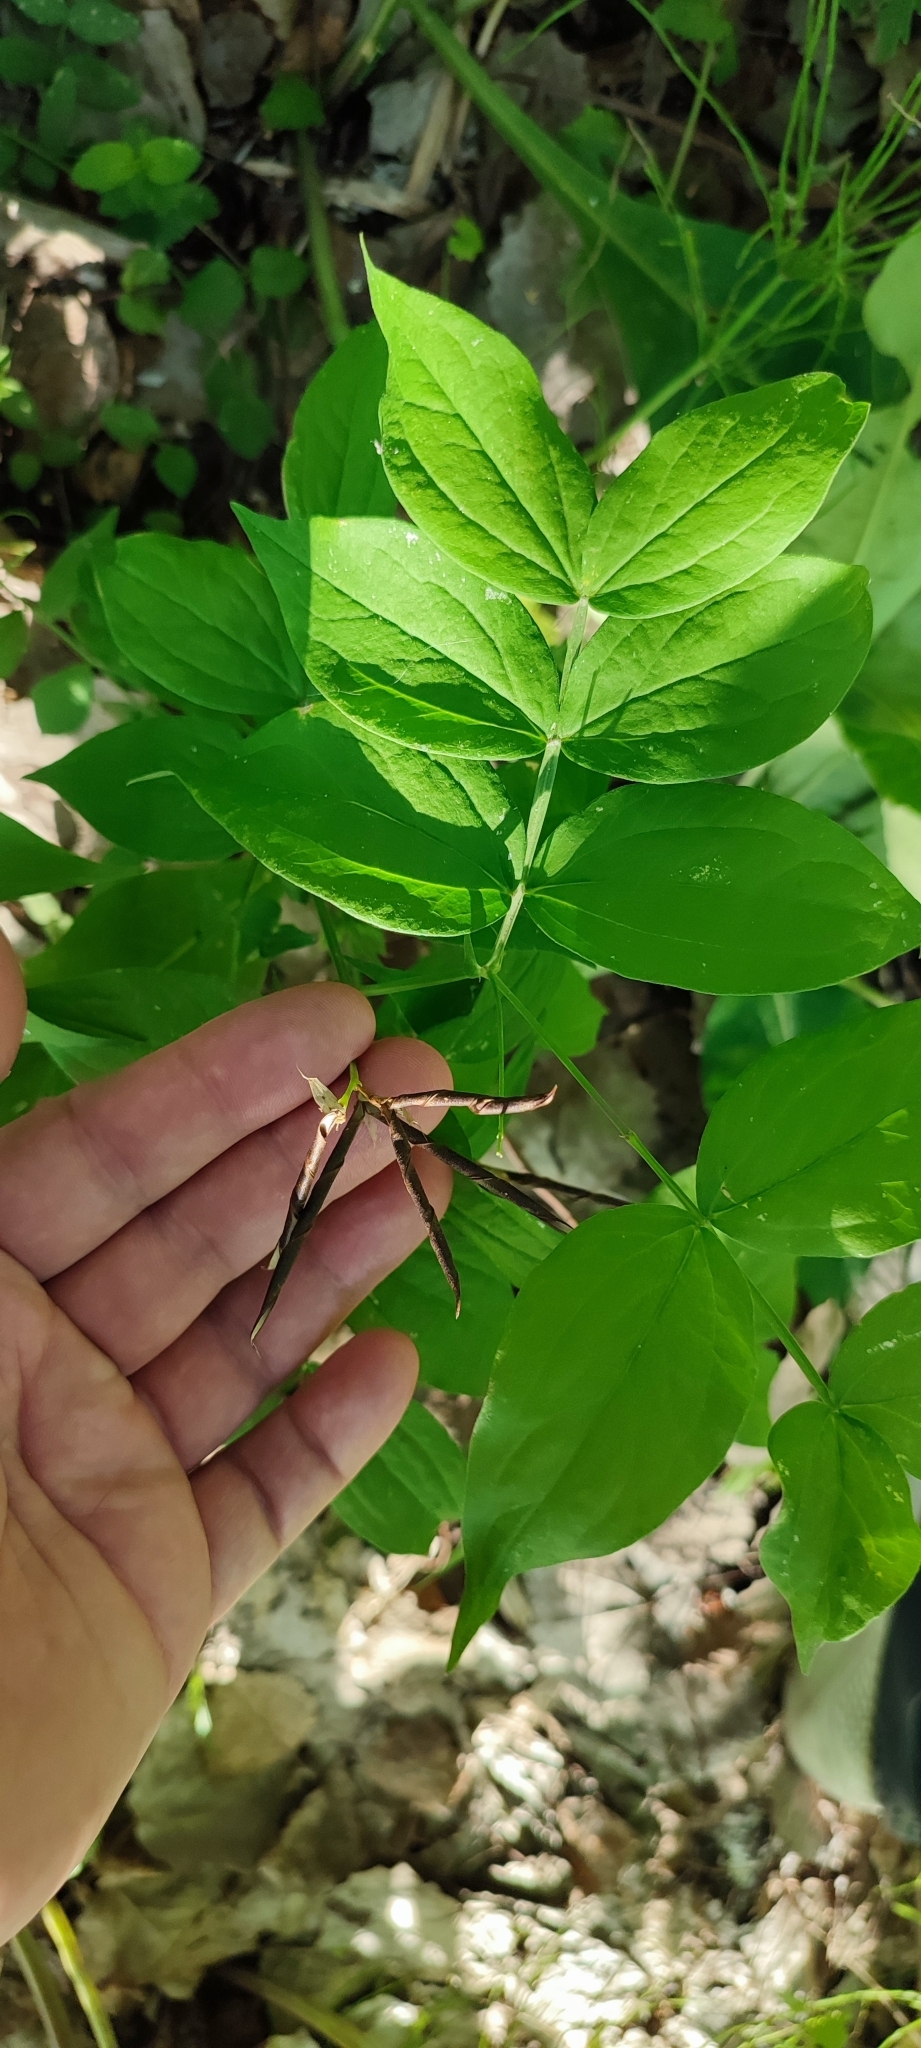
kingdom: Plantae
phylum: Tracheophyta
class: Magnoliopsida
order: Fabales
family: Fabaceae
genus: Lathyrus
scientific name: Lathyrus vernus
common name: Spring pea
